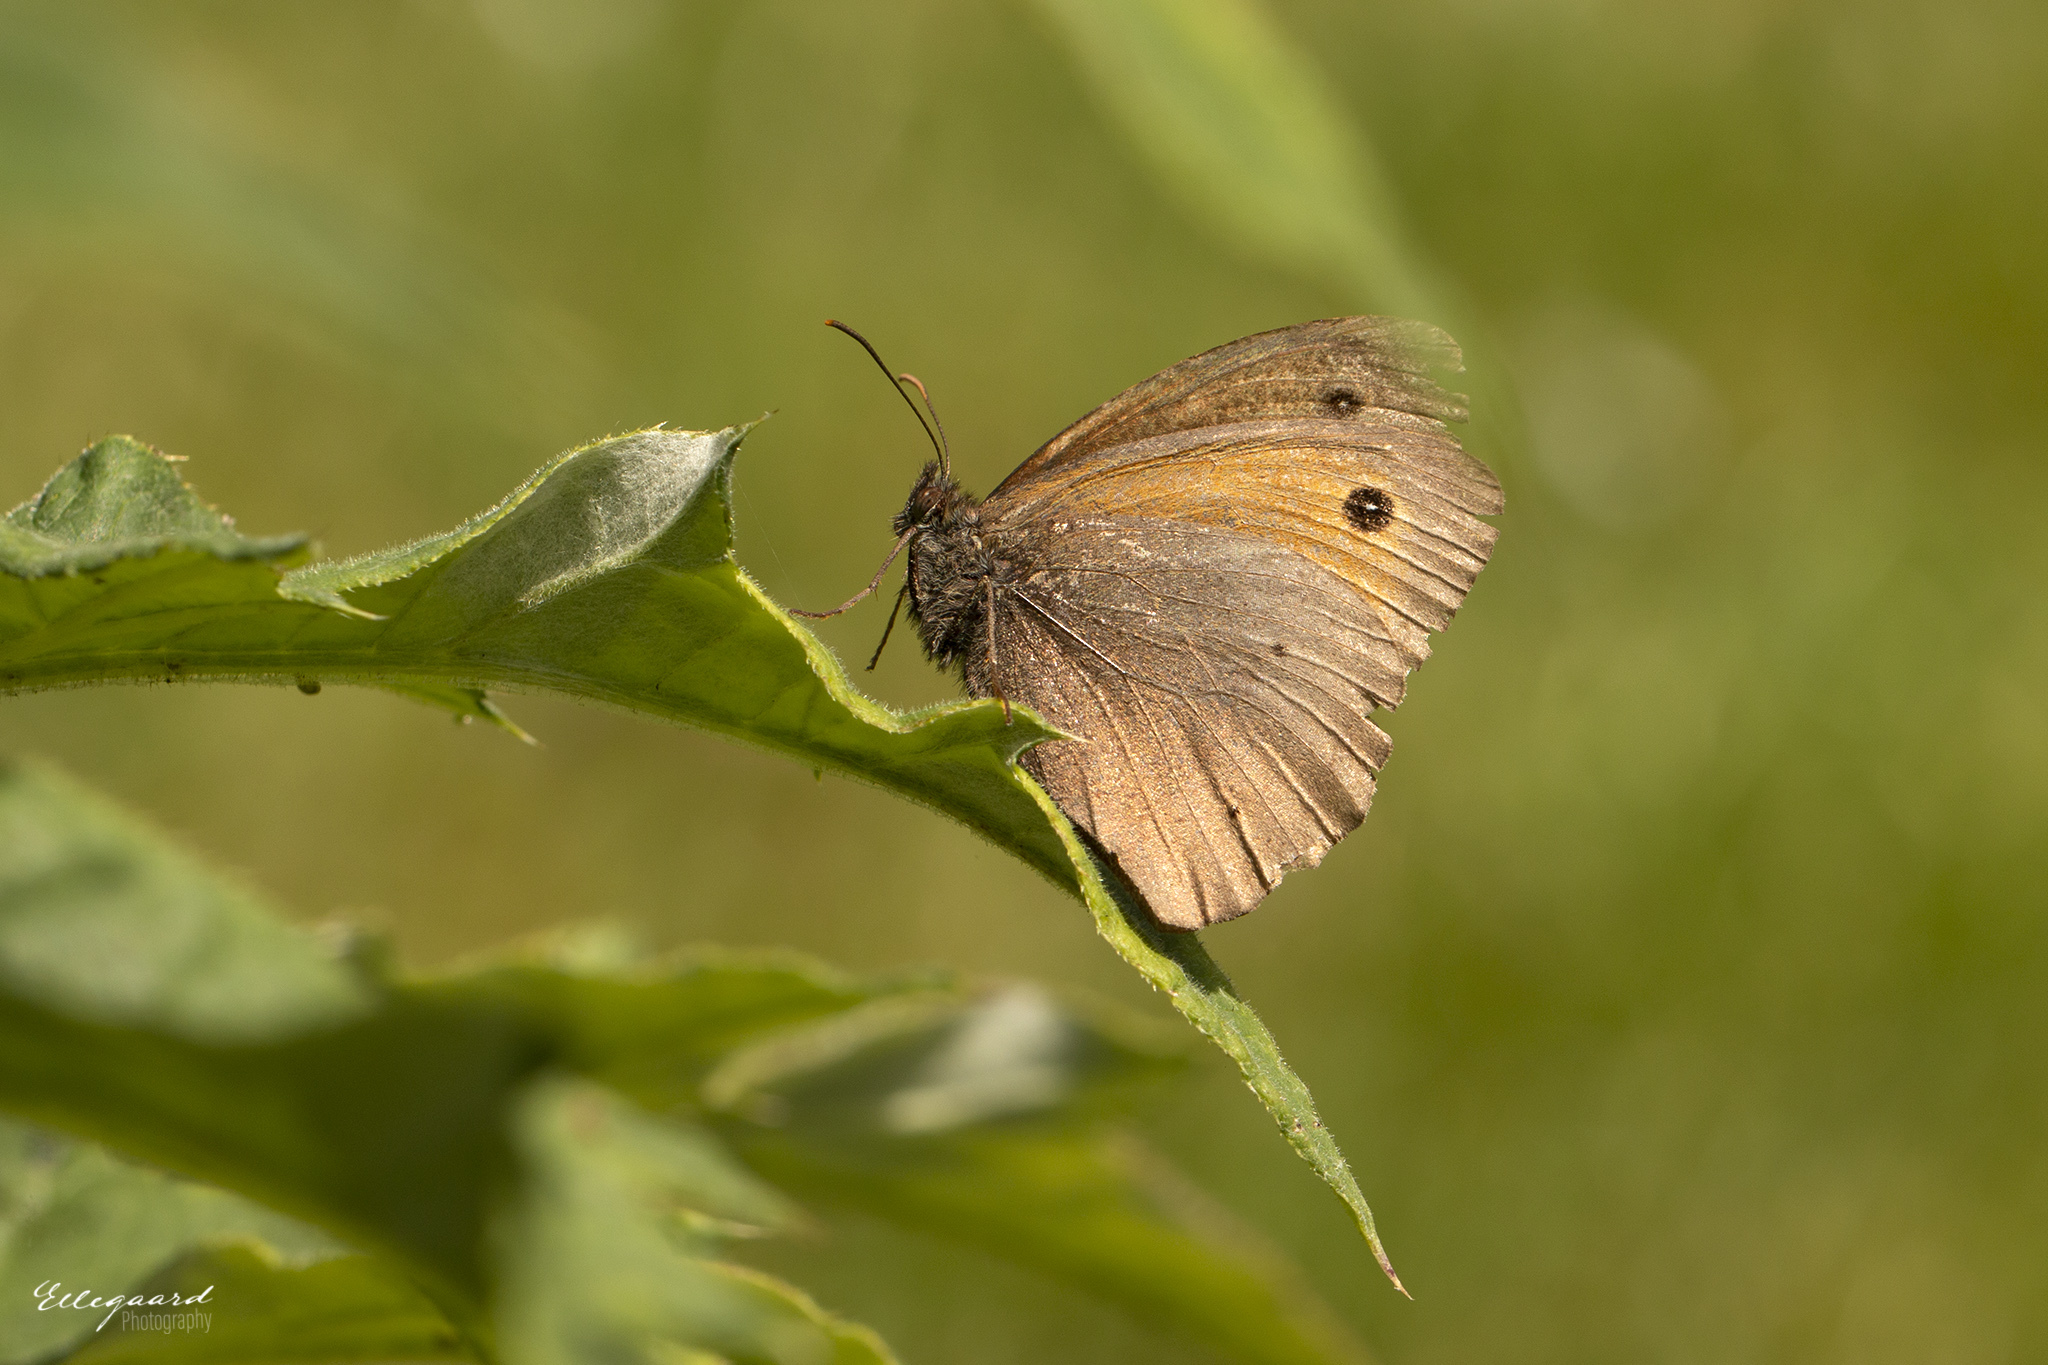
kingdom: Animalia
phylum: Arthropoda
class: Insecta
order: Lepidoptera
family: Nymphalidae
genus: Maniola
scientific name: Maniola jurtina
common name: Meadow brown
